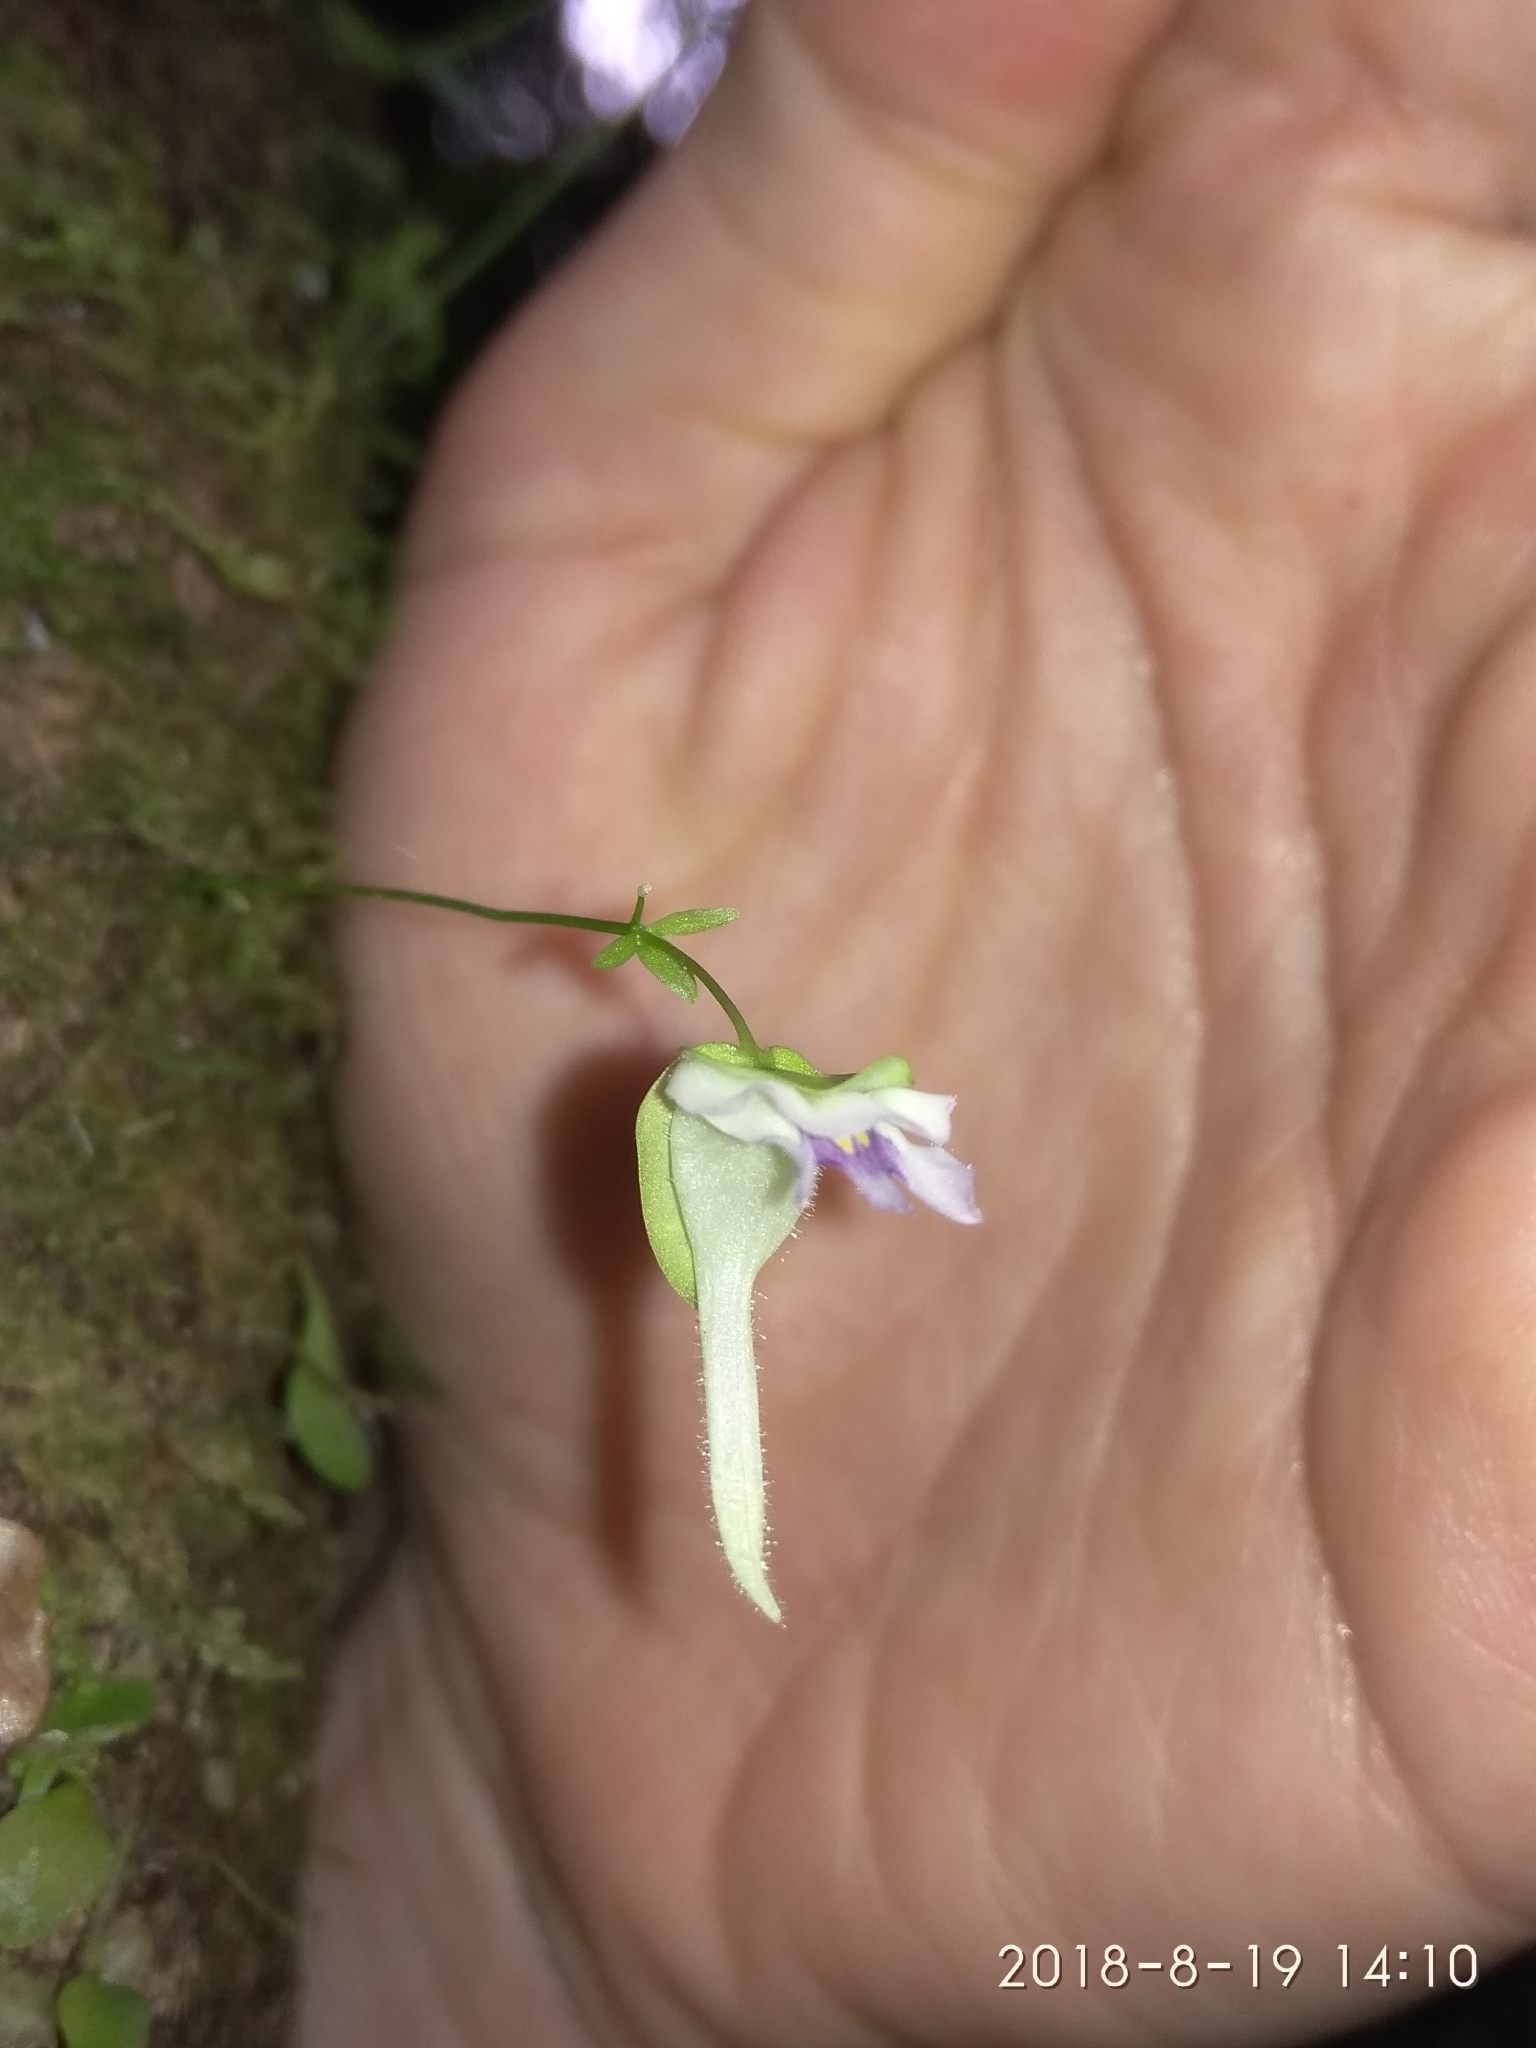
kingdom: Plantae
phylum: Tracheophyta
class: Magnoliopsida
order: Lamiales
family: Lentibulariaceae
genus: Utricularia
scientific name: Utricularia jamesoniana
